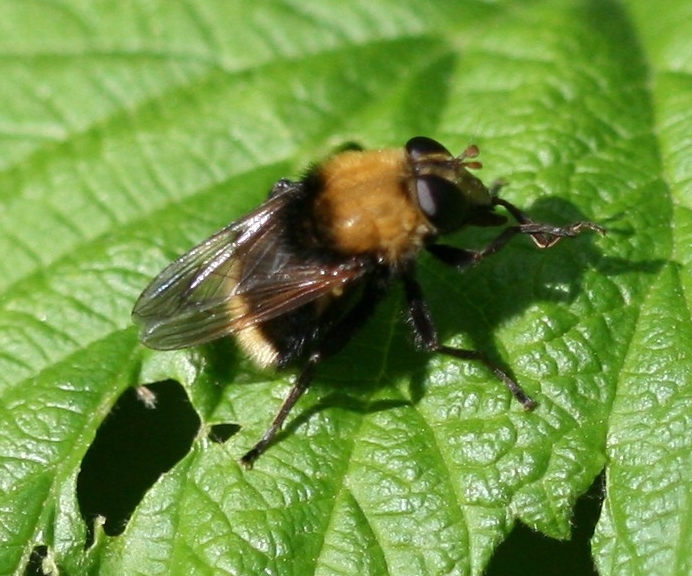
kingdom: Animalia
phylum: Arthropoda
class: Insecta
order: Diptera
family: Syrphidae
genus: Criorhina
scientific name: Criorhina berberina
